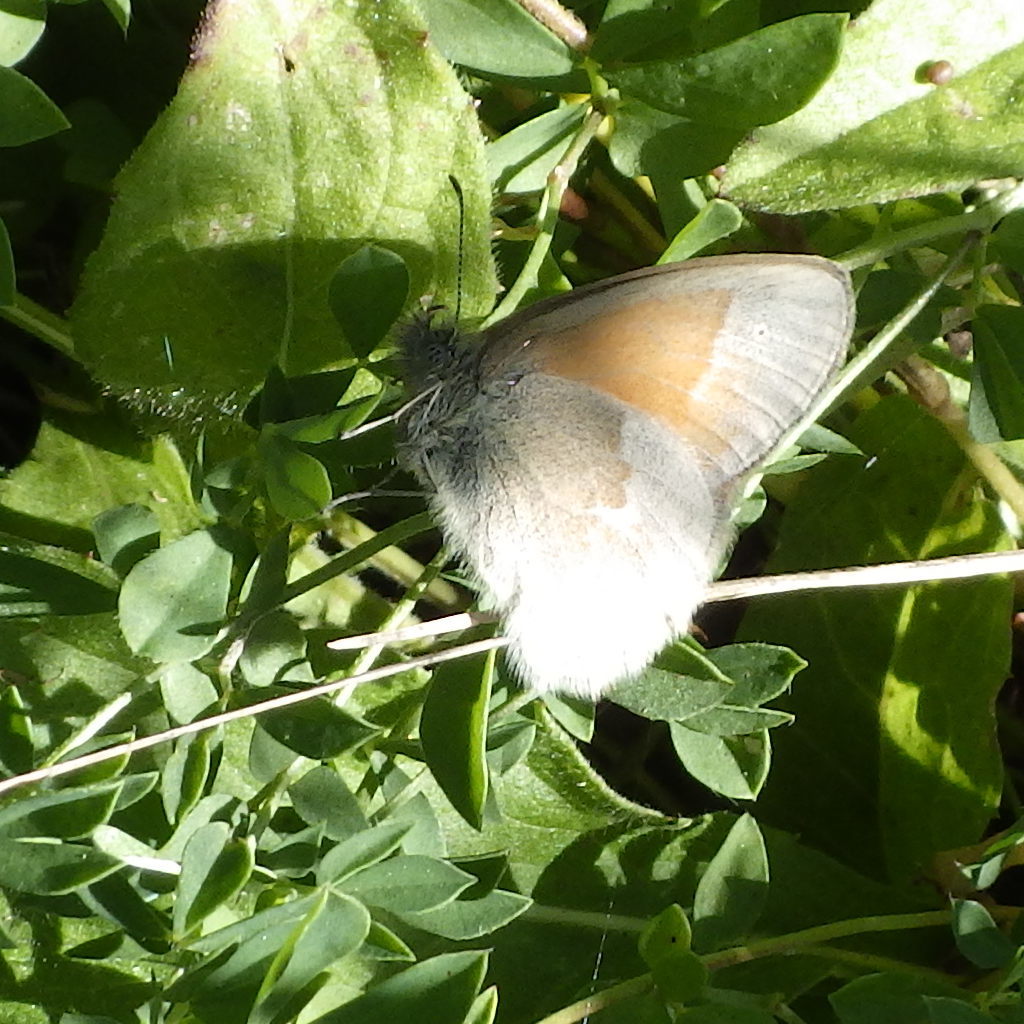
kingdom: Animalia
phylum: Arthropoda
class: Insecta
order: Lepidoptera
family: Nymphalidae
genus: Coenonympha
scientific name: Coenonympha california
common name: Common ringlet
